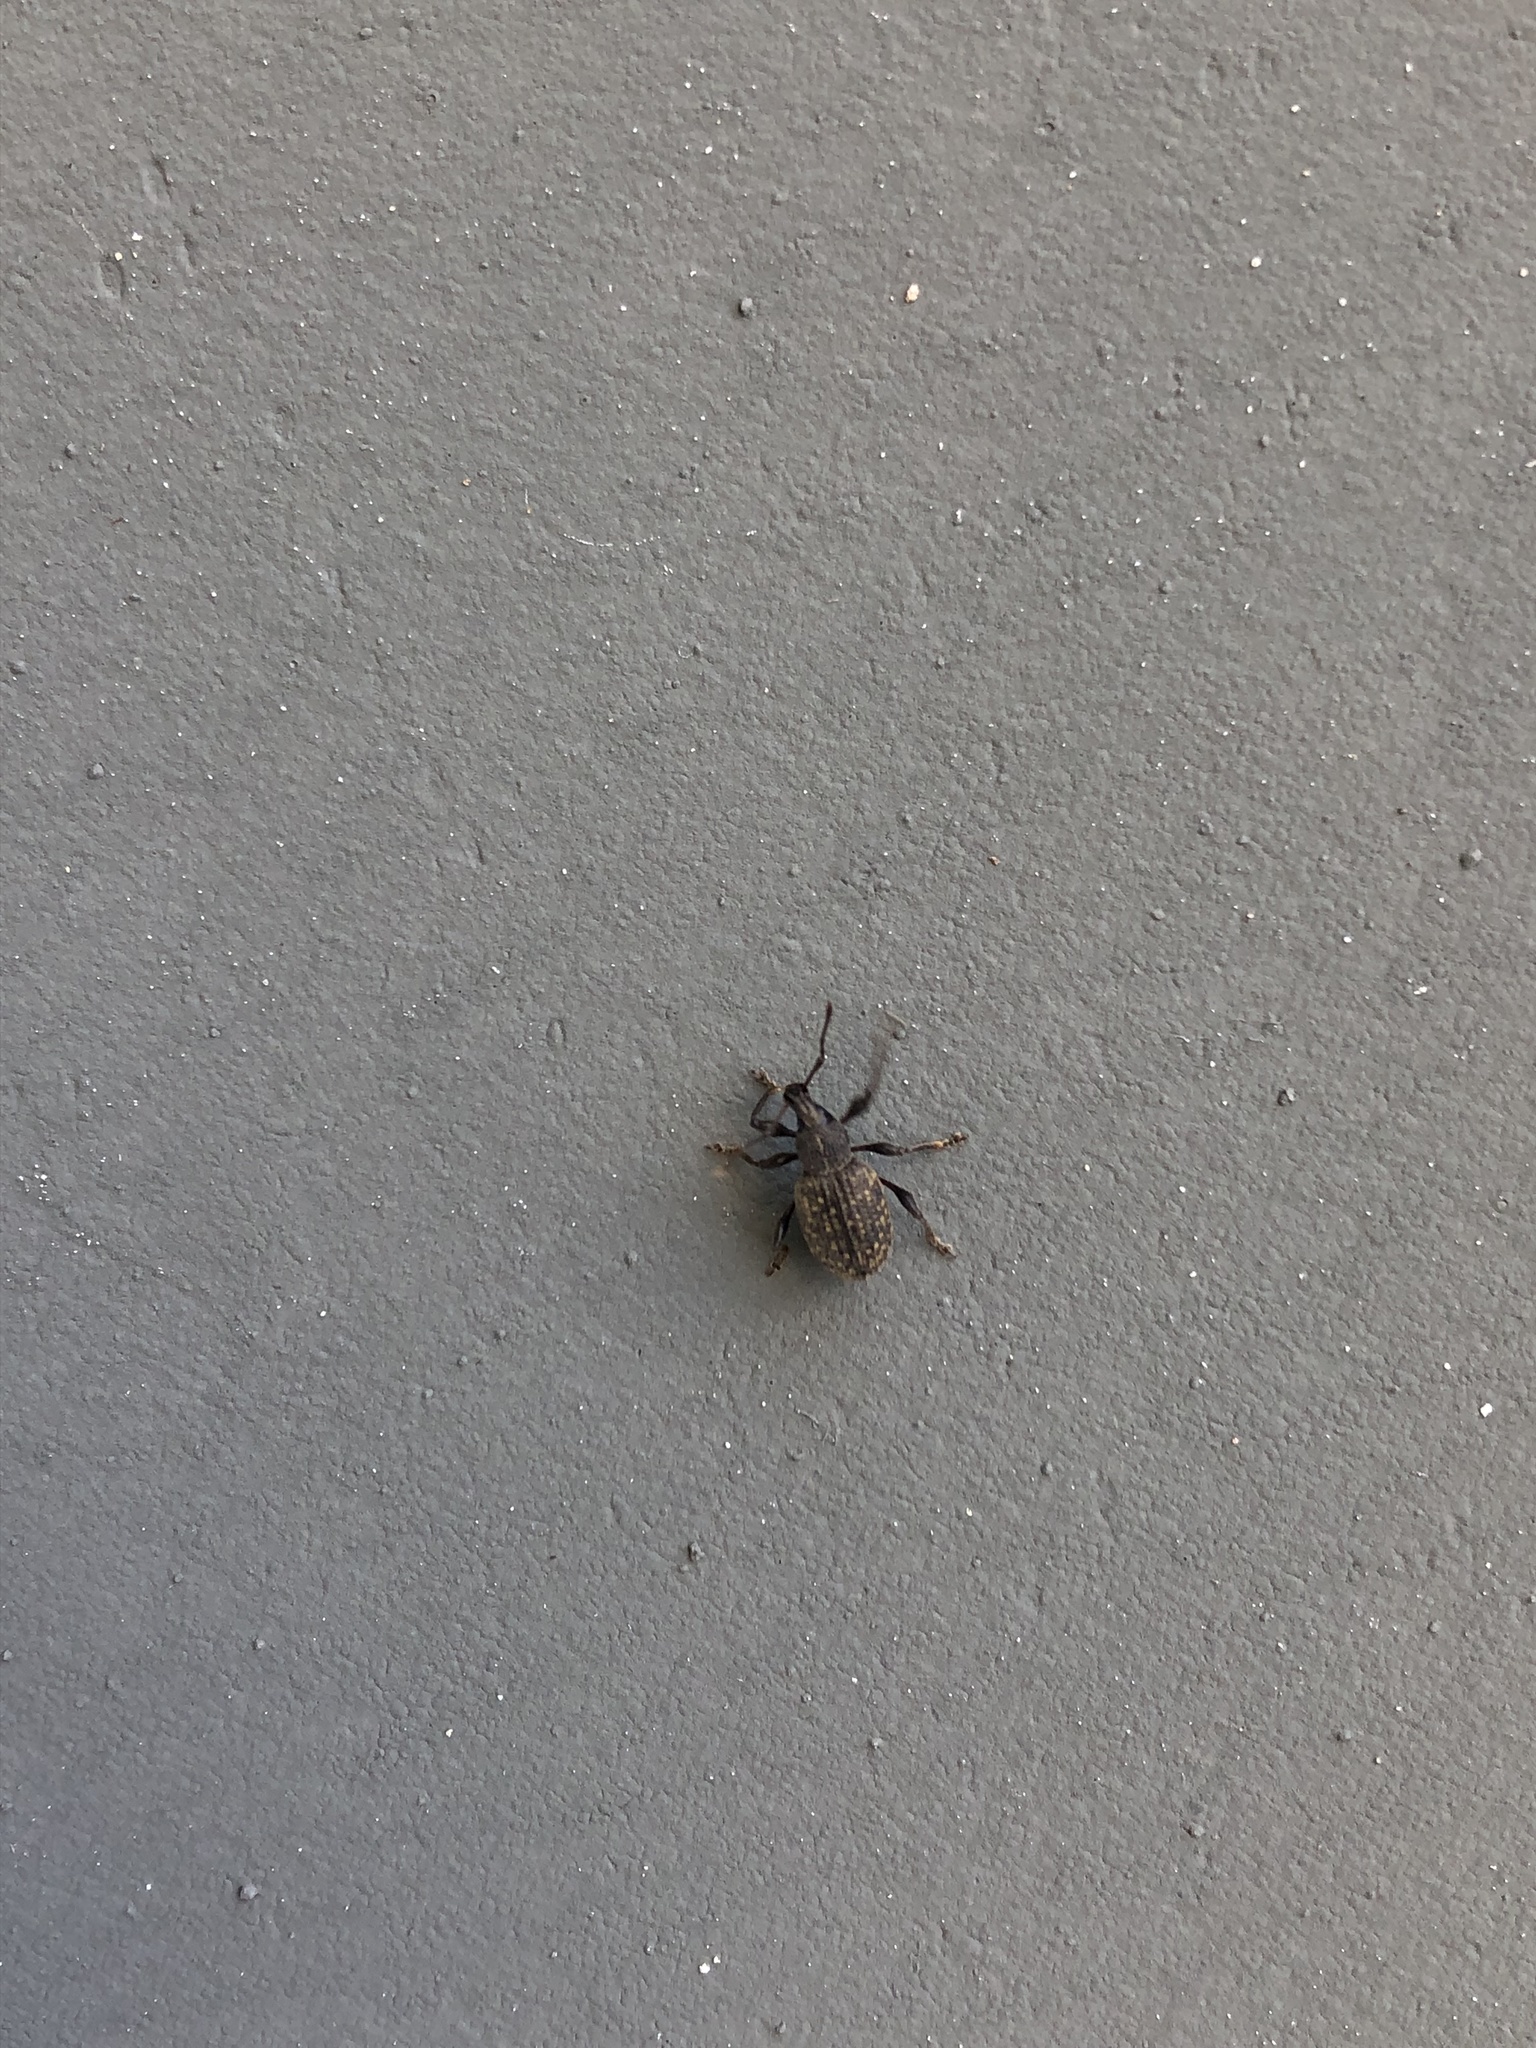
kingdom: Animalia
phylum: Arthropoda
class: Insecta
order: Coleoptera
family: Curculionidae
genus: Otiorhynchus
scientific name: Otiorhynchus sulcatus
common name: Black vine weevil
